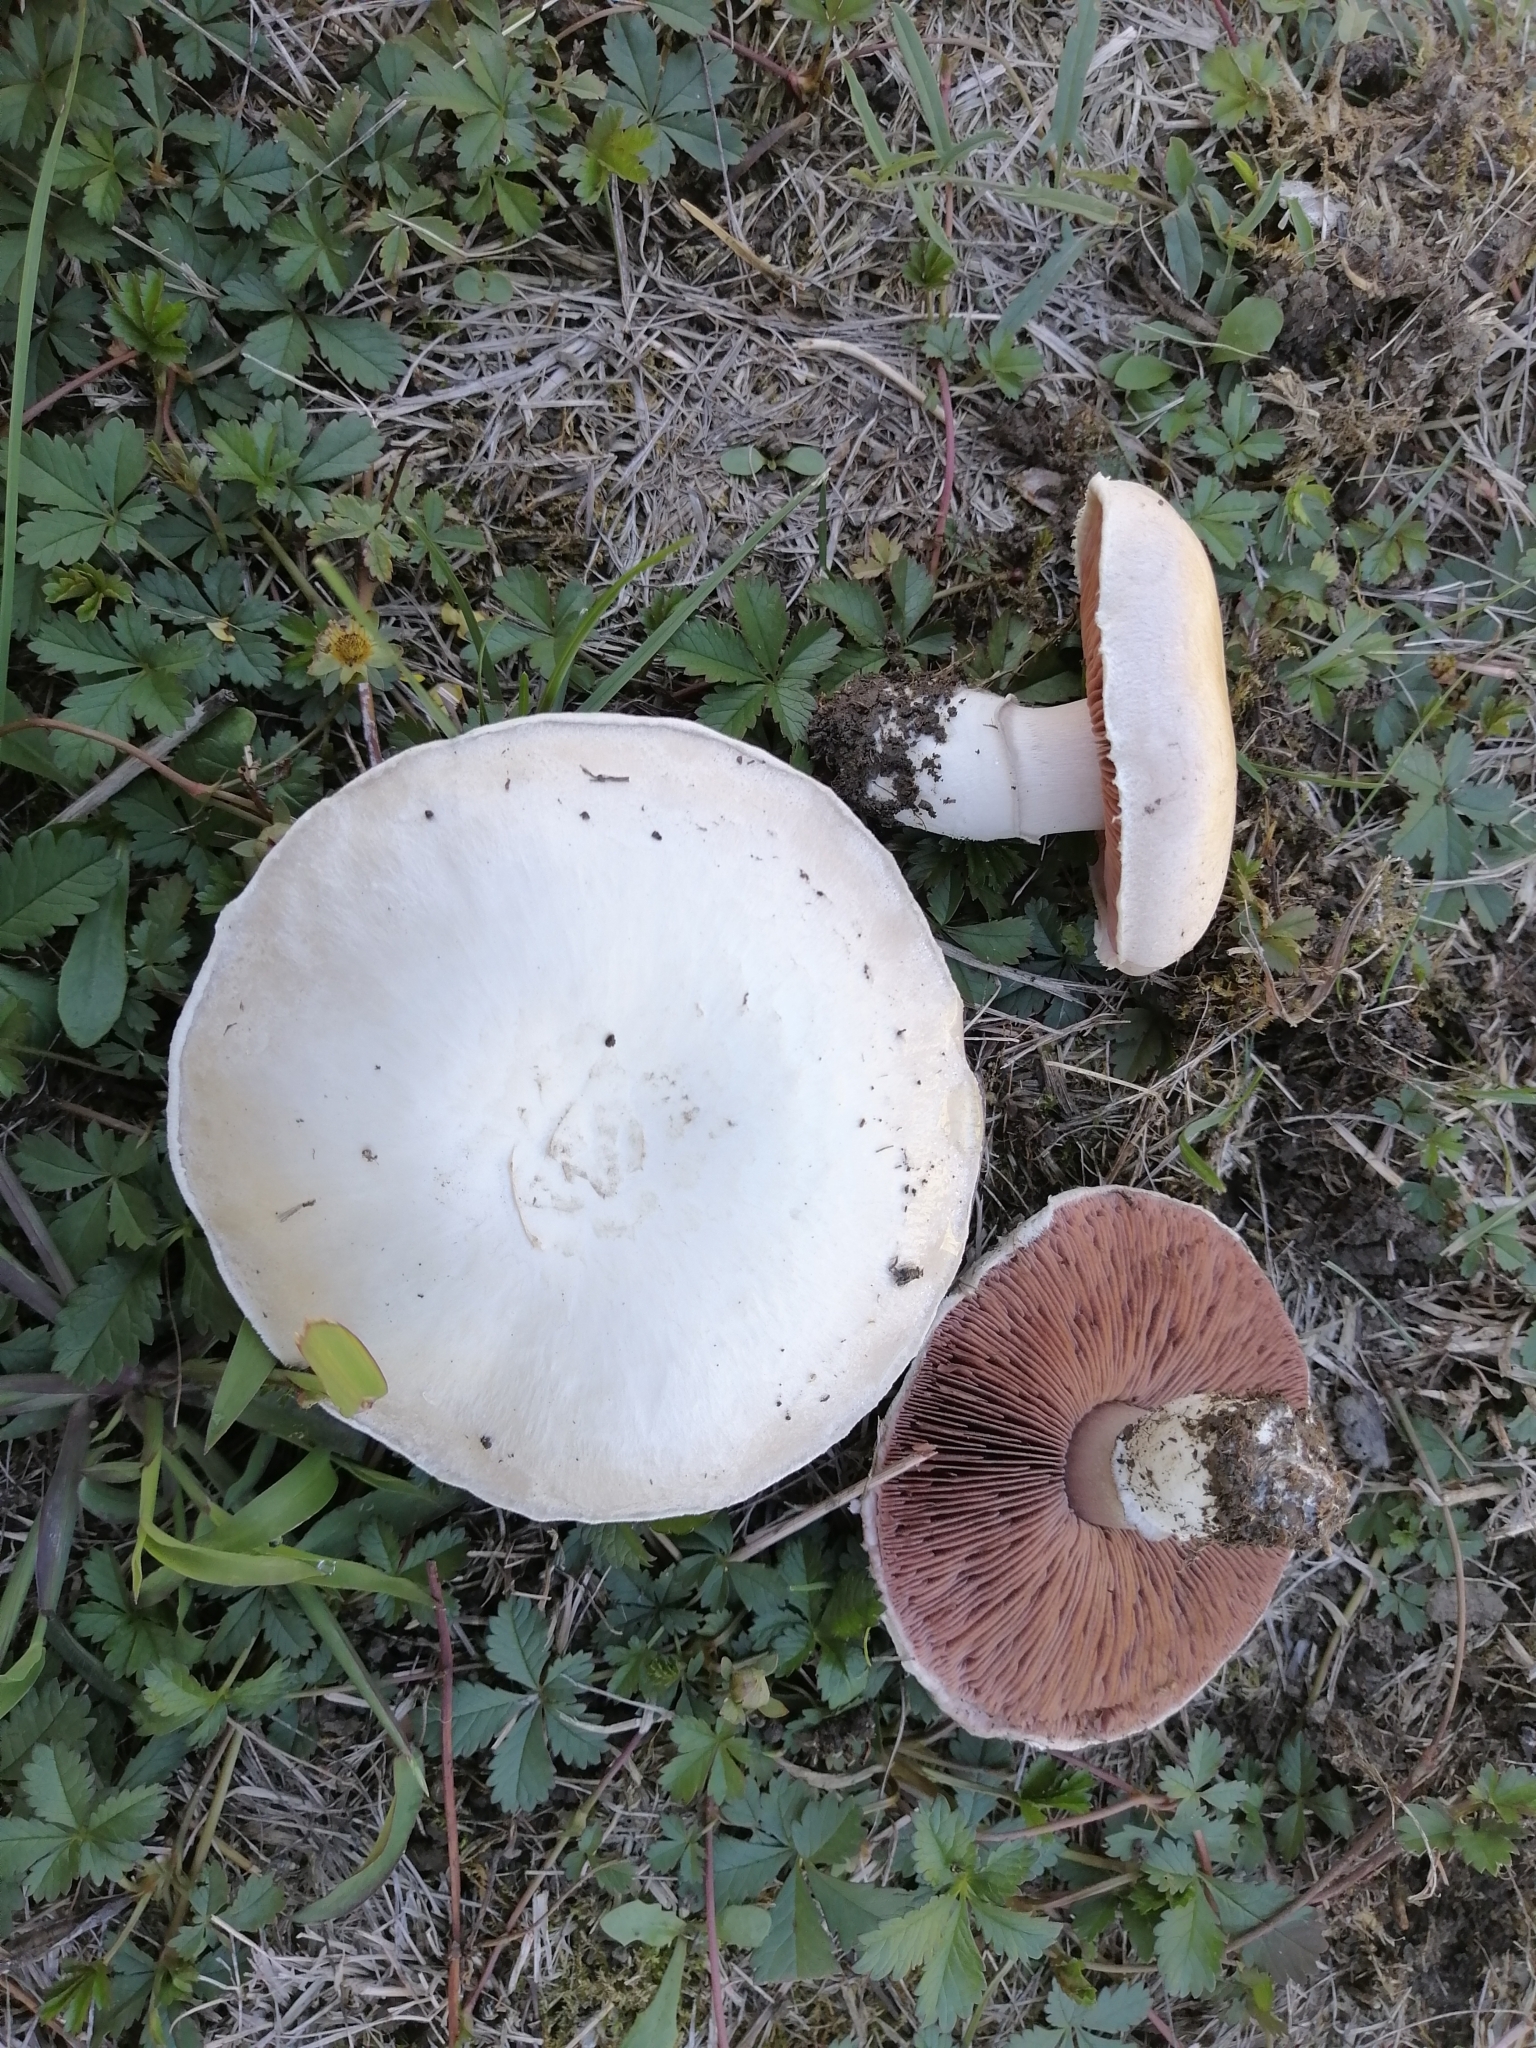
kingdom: Fungi
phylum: Basidiomycota
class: Agaricomycetes
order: Agaricales
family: Agaricaceae
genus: Agaricus
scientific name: Agaricus campestris
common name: Field mushroom
